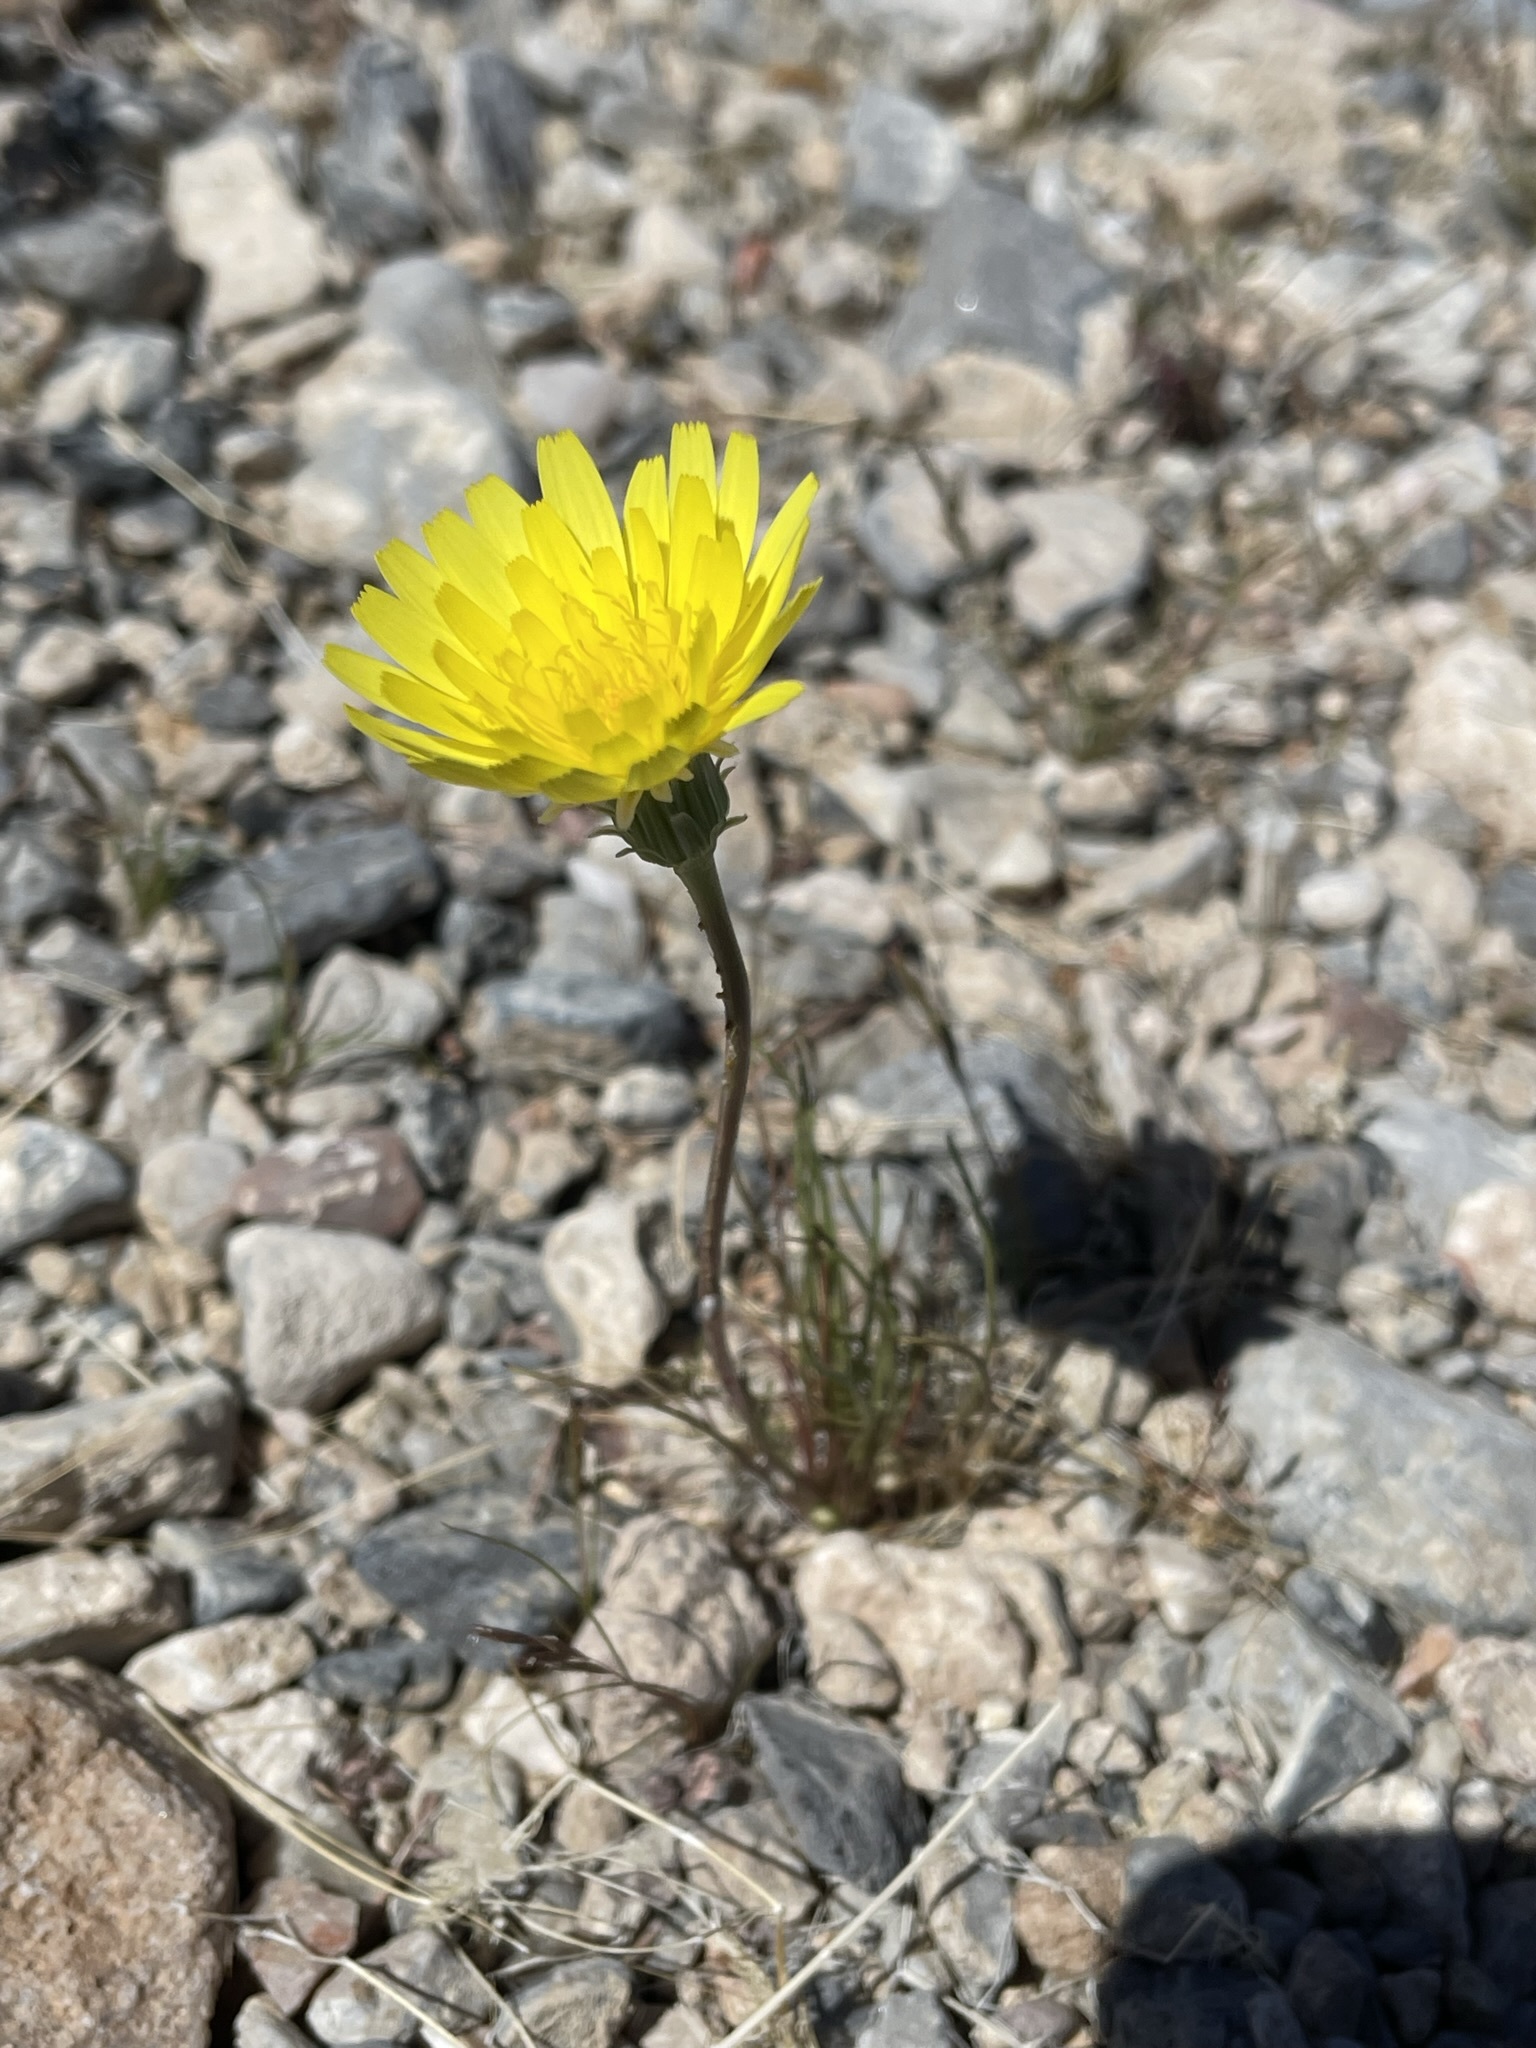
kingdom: Plantae
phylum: Tracheophyta
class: Magnoliopsida
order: Asterales
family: Asteraceae
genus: Malacothrix
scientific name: Malacothrix glabrata
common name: Smooth desert-dandelion
